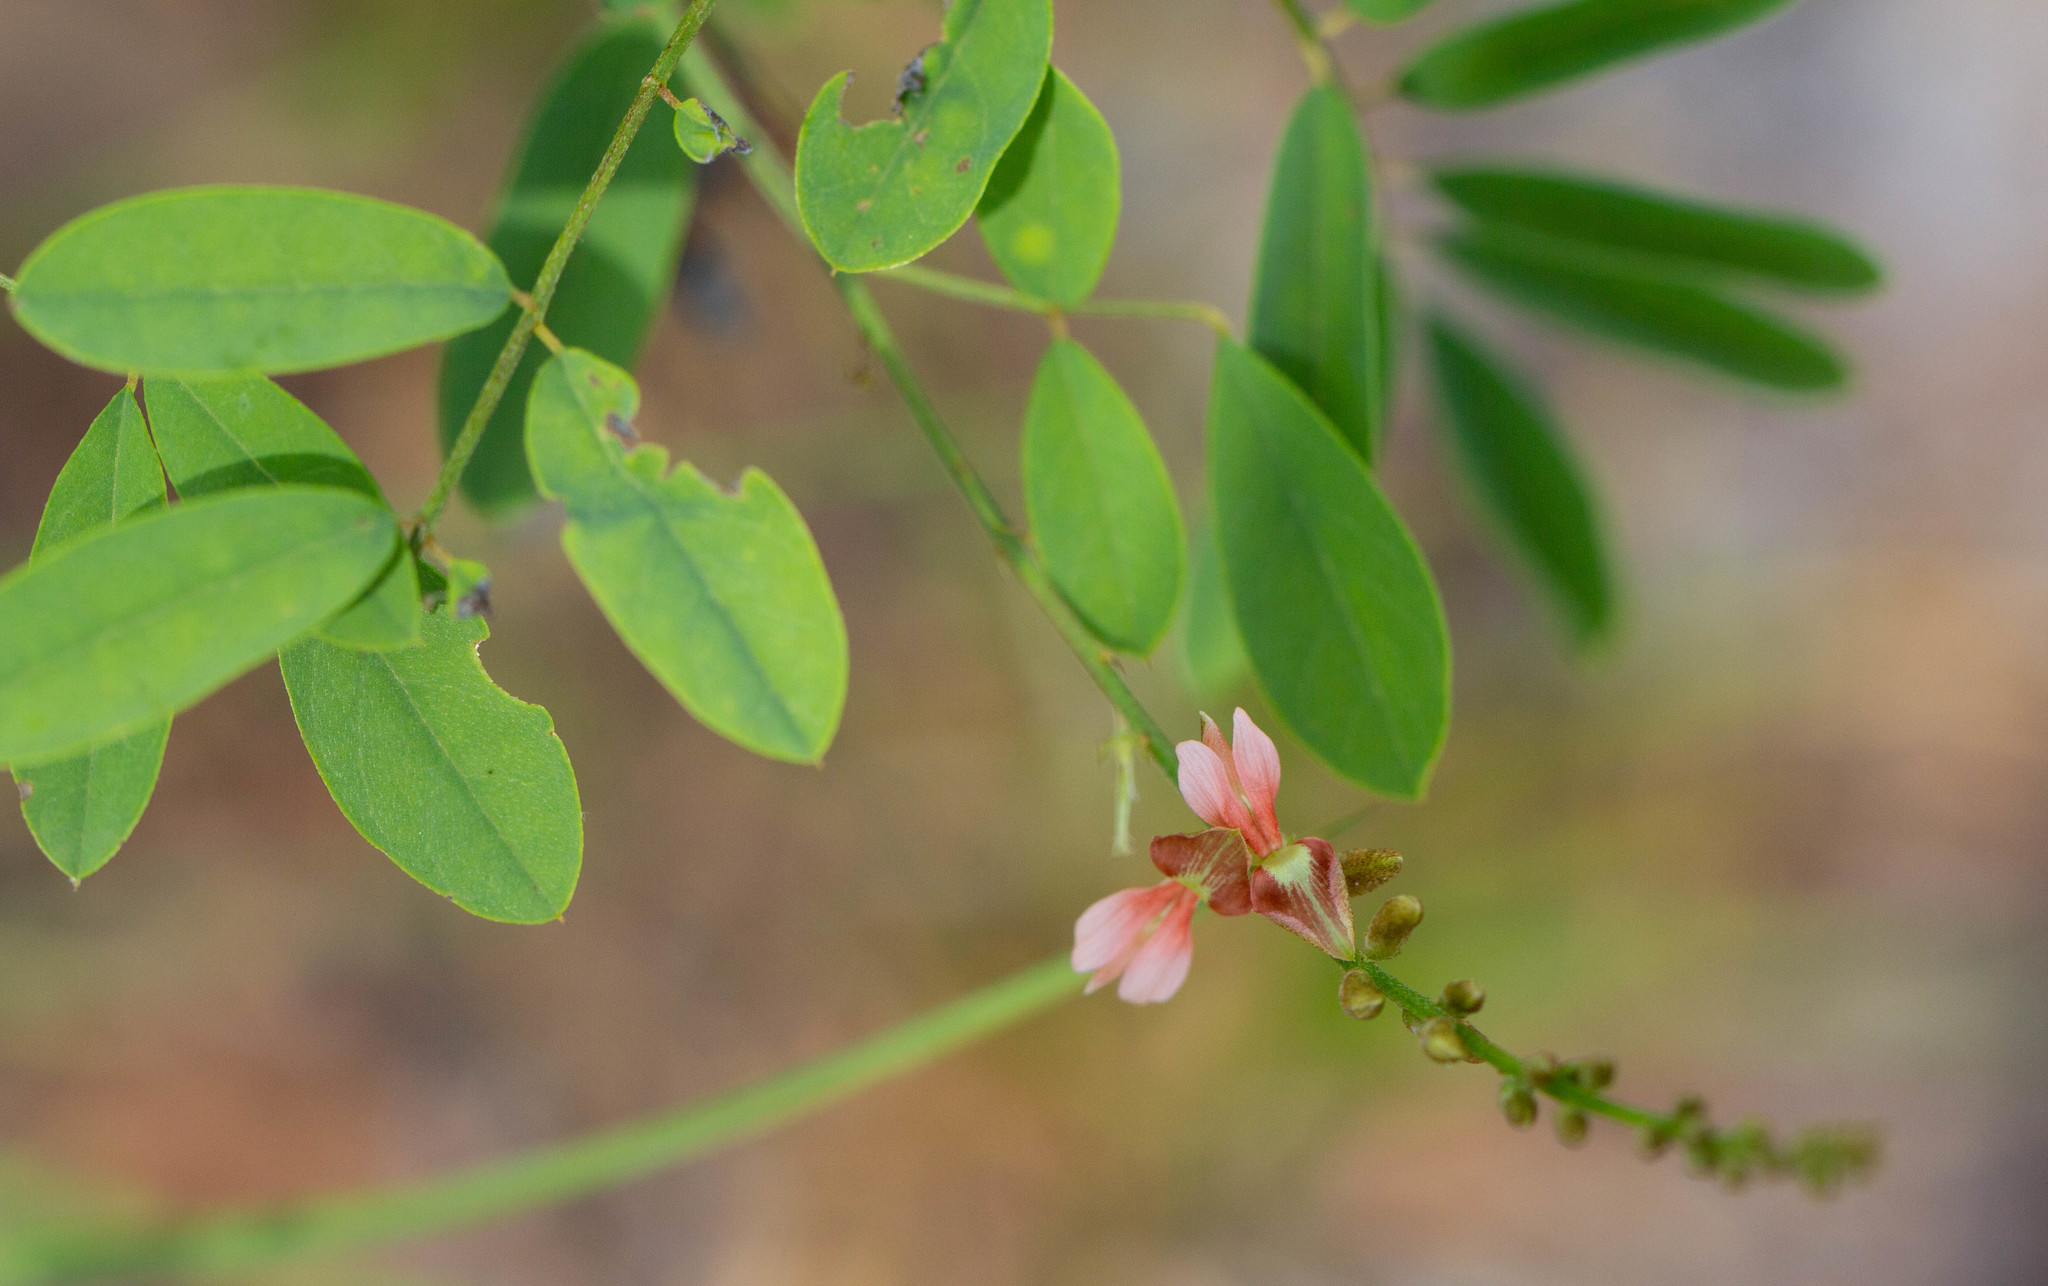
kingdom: Plantae
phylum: Tracheophyta
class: Magnoliopsida
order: Fabales
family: Fabaceae
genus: Indigofera
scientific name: Indigofera caroliniana
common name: Wild indigo
